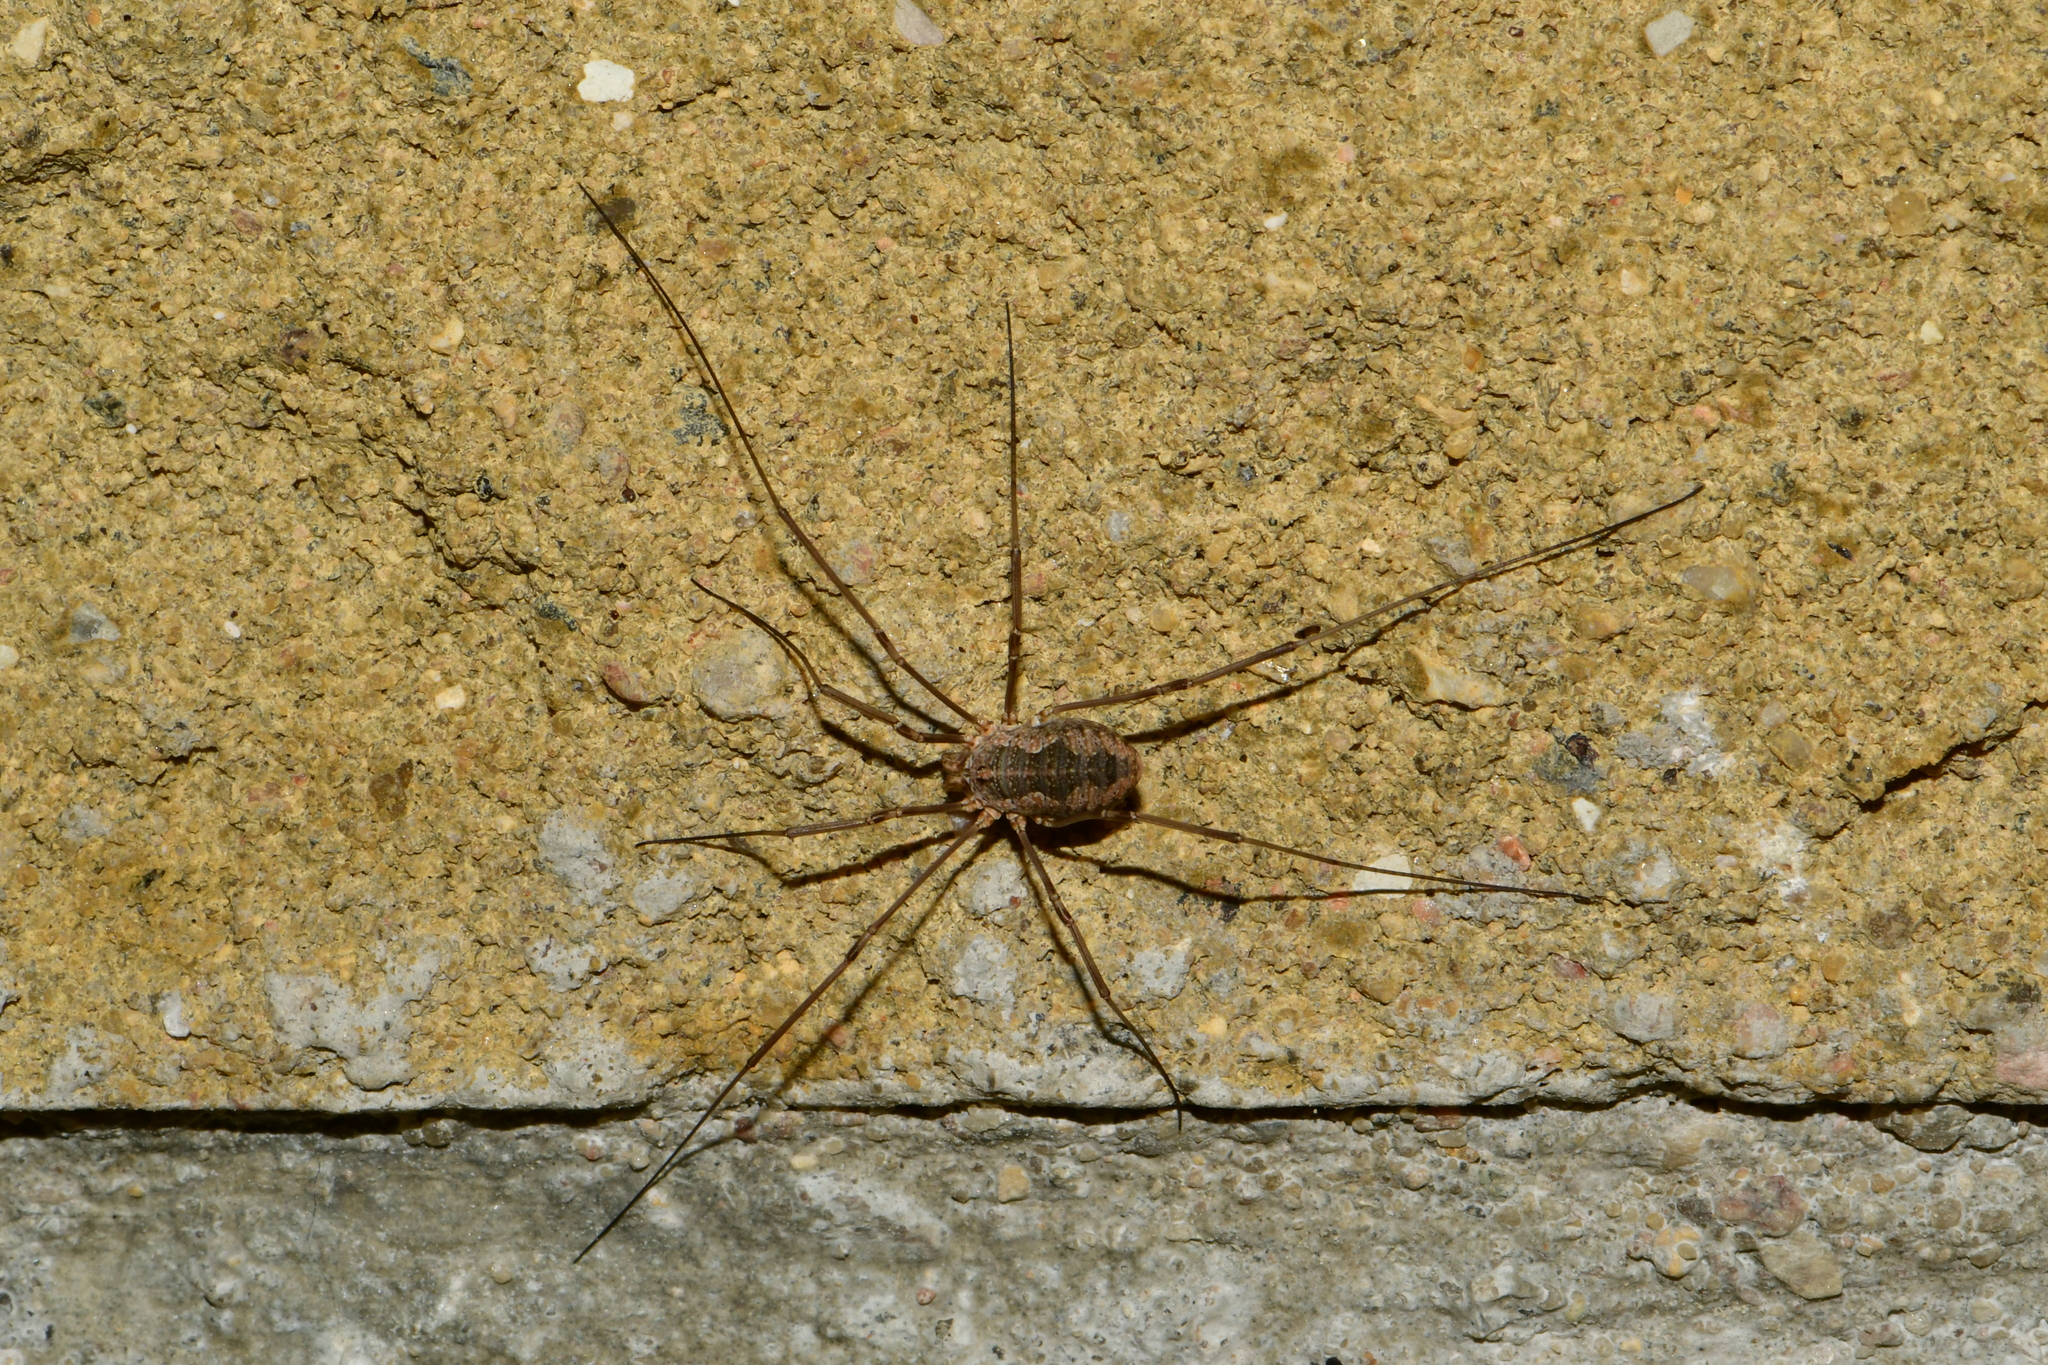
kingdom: Animalia
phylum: Arthropoda
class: Arachnida
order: Opiliones
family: Phalangiidae
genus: Phalangium
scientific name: Phalangium opilio
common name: Daddy longleg
